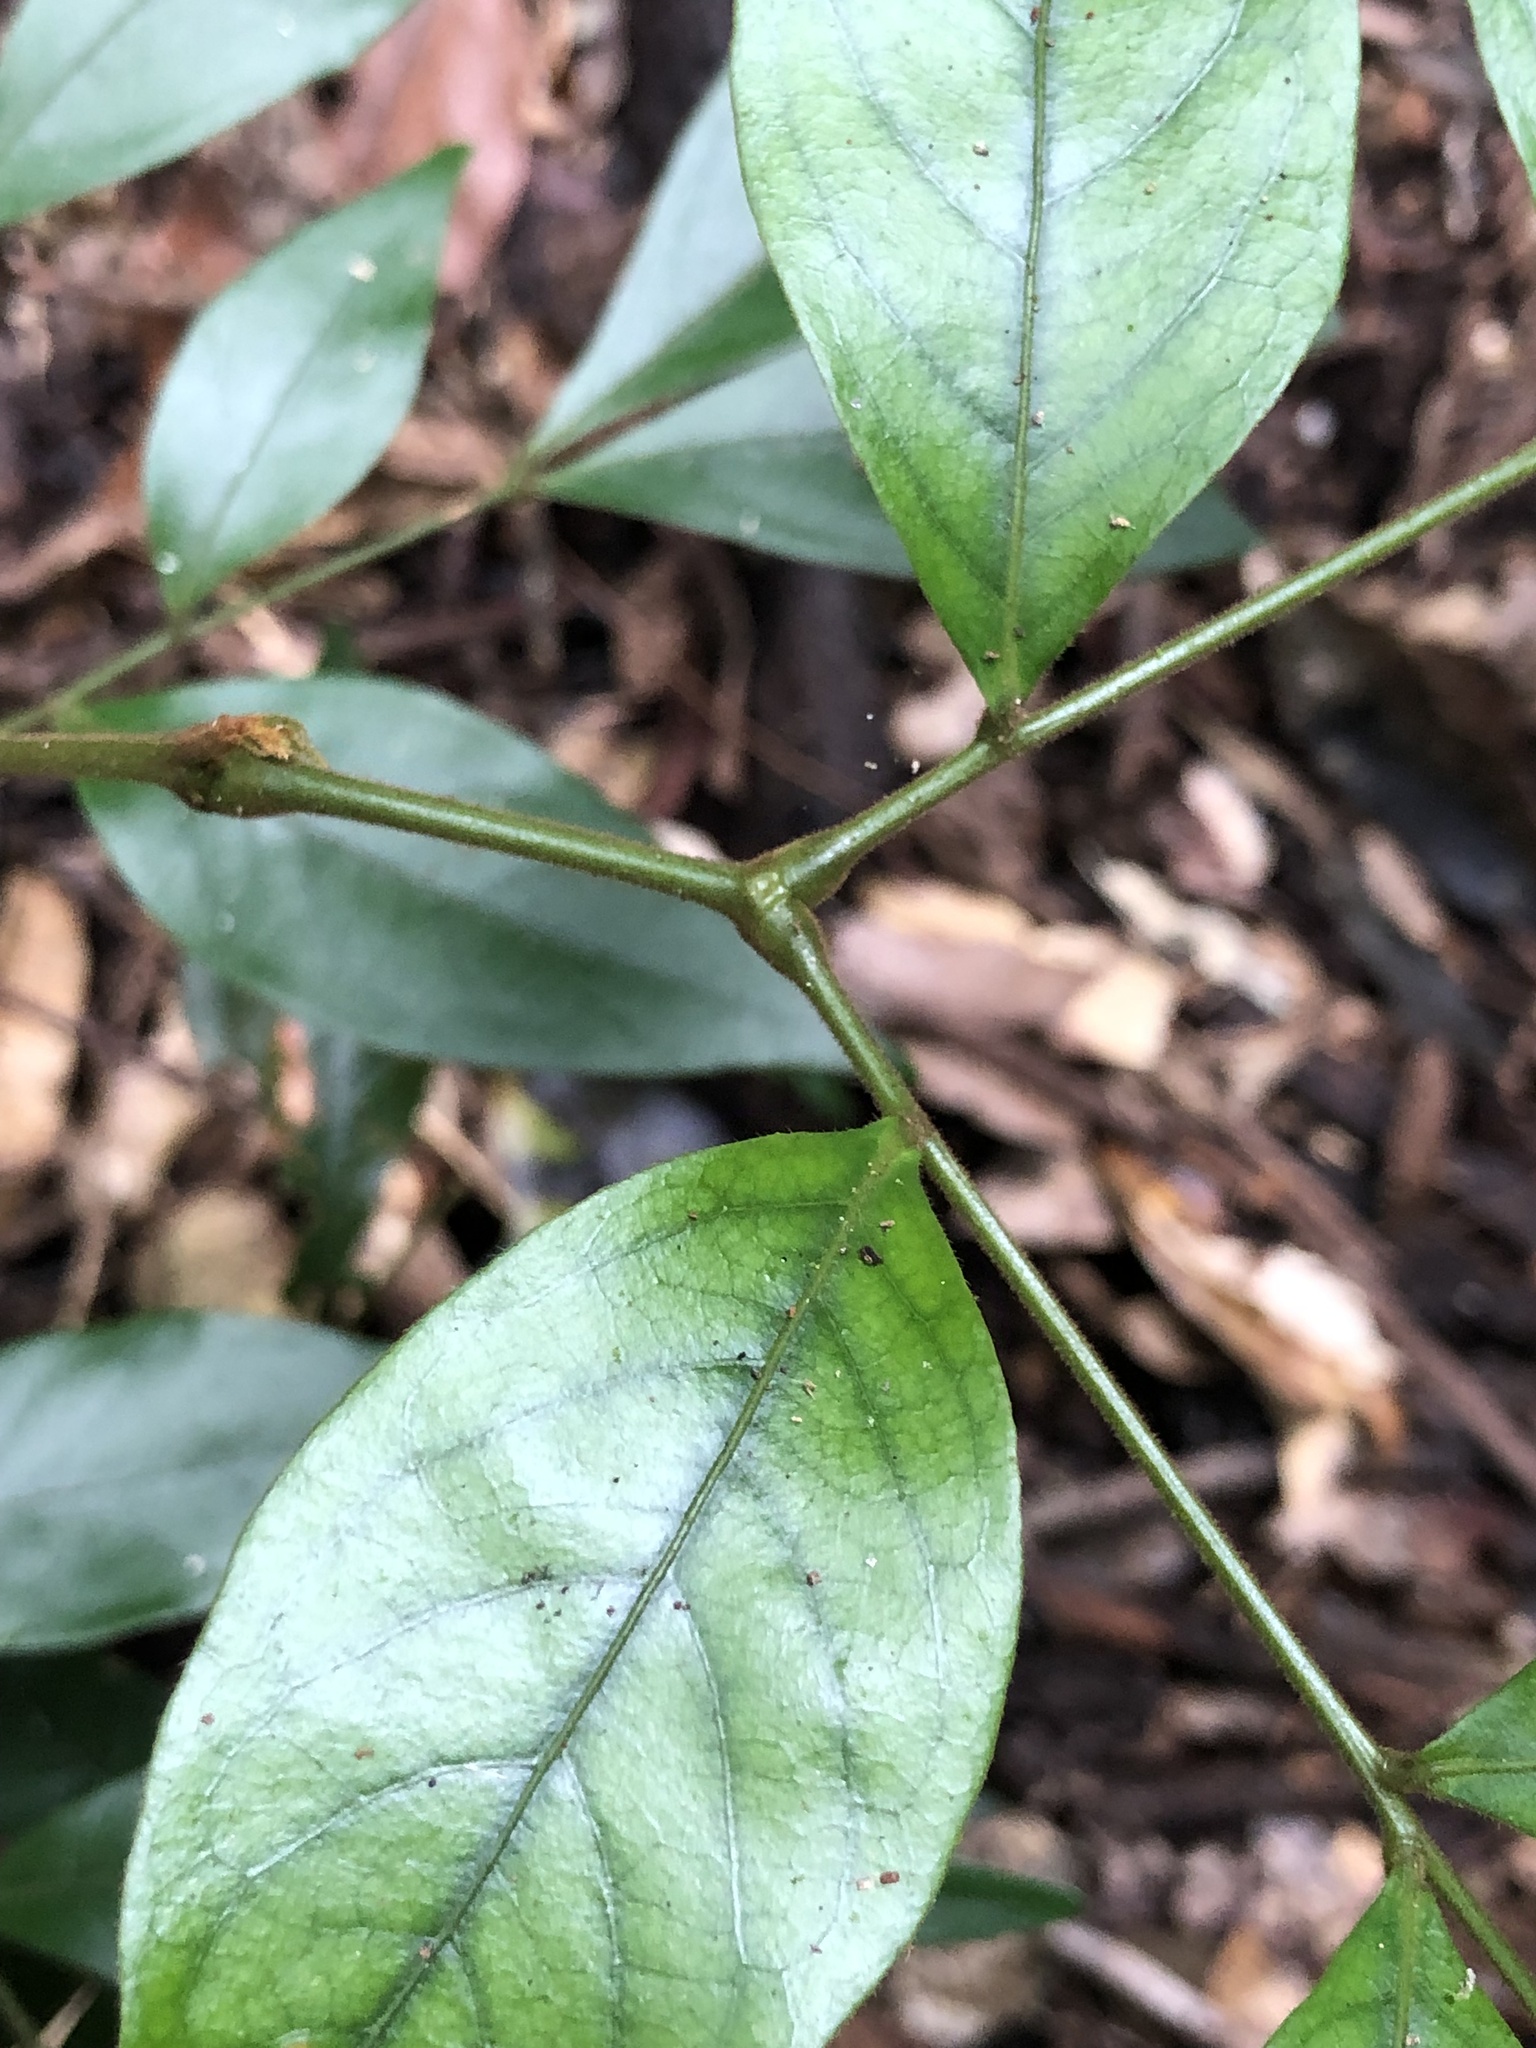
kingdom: Plantae
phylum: Tracheophyta
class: Magnoliopsida
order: Fabales
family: Fabaceae
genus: Archidendron
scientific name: Archidendron muellerianum
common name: Small-flower laceflower
